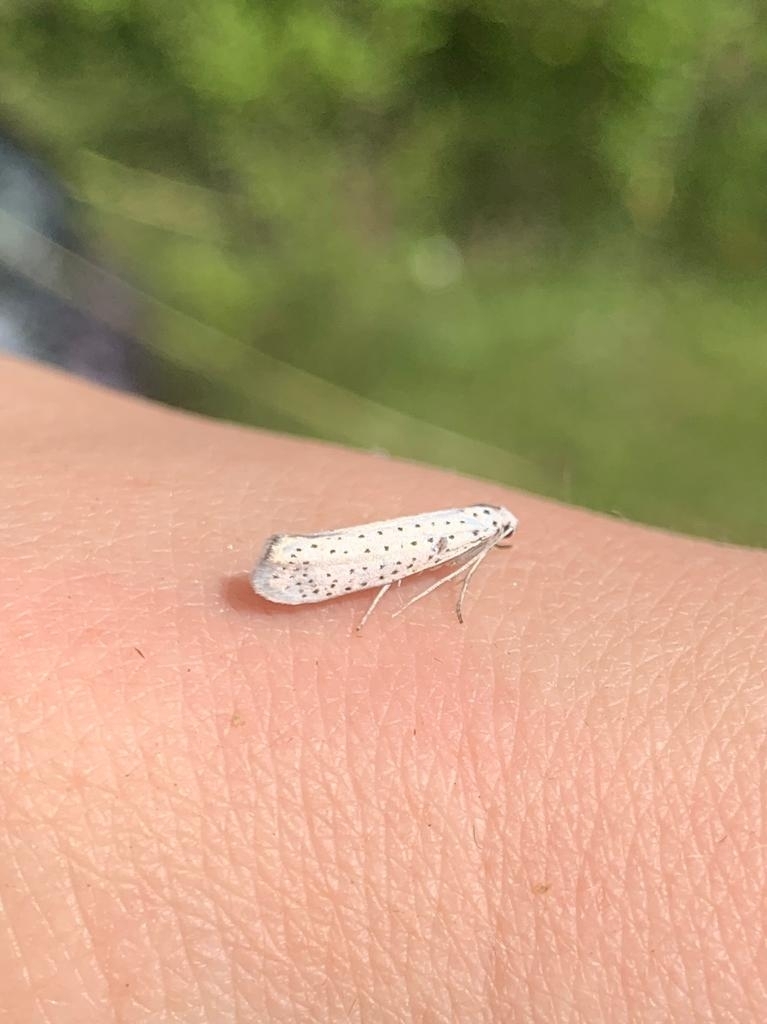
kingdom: Animalia
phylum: Arthropoda
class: Insecta
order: Lepidoptera
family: Yponomeutidae
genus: Yponomeuta
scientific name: Yponomeuta evonymella
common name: Bird-cherry ermine
